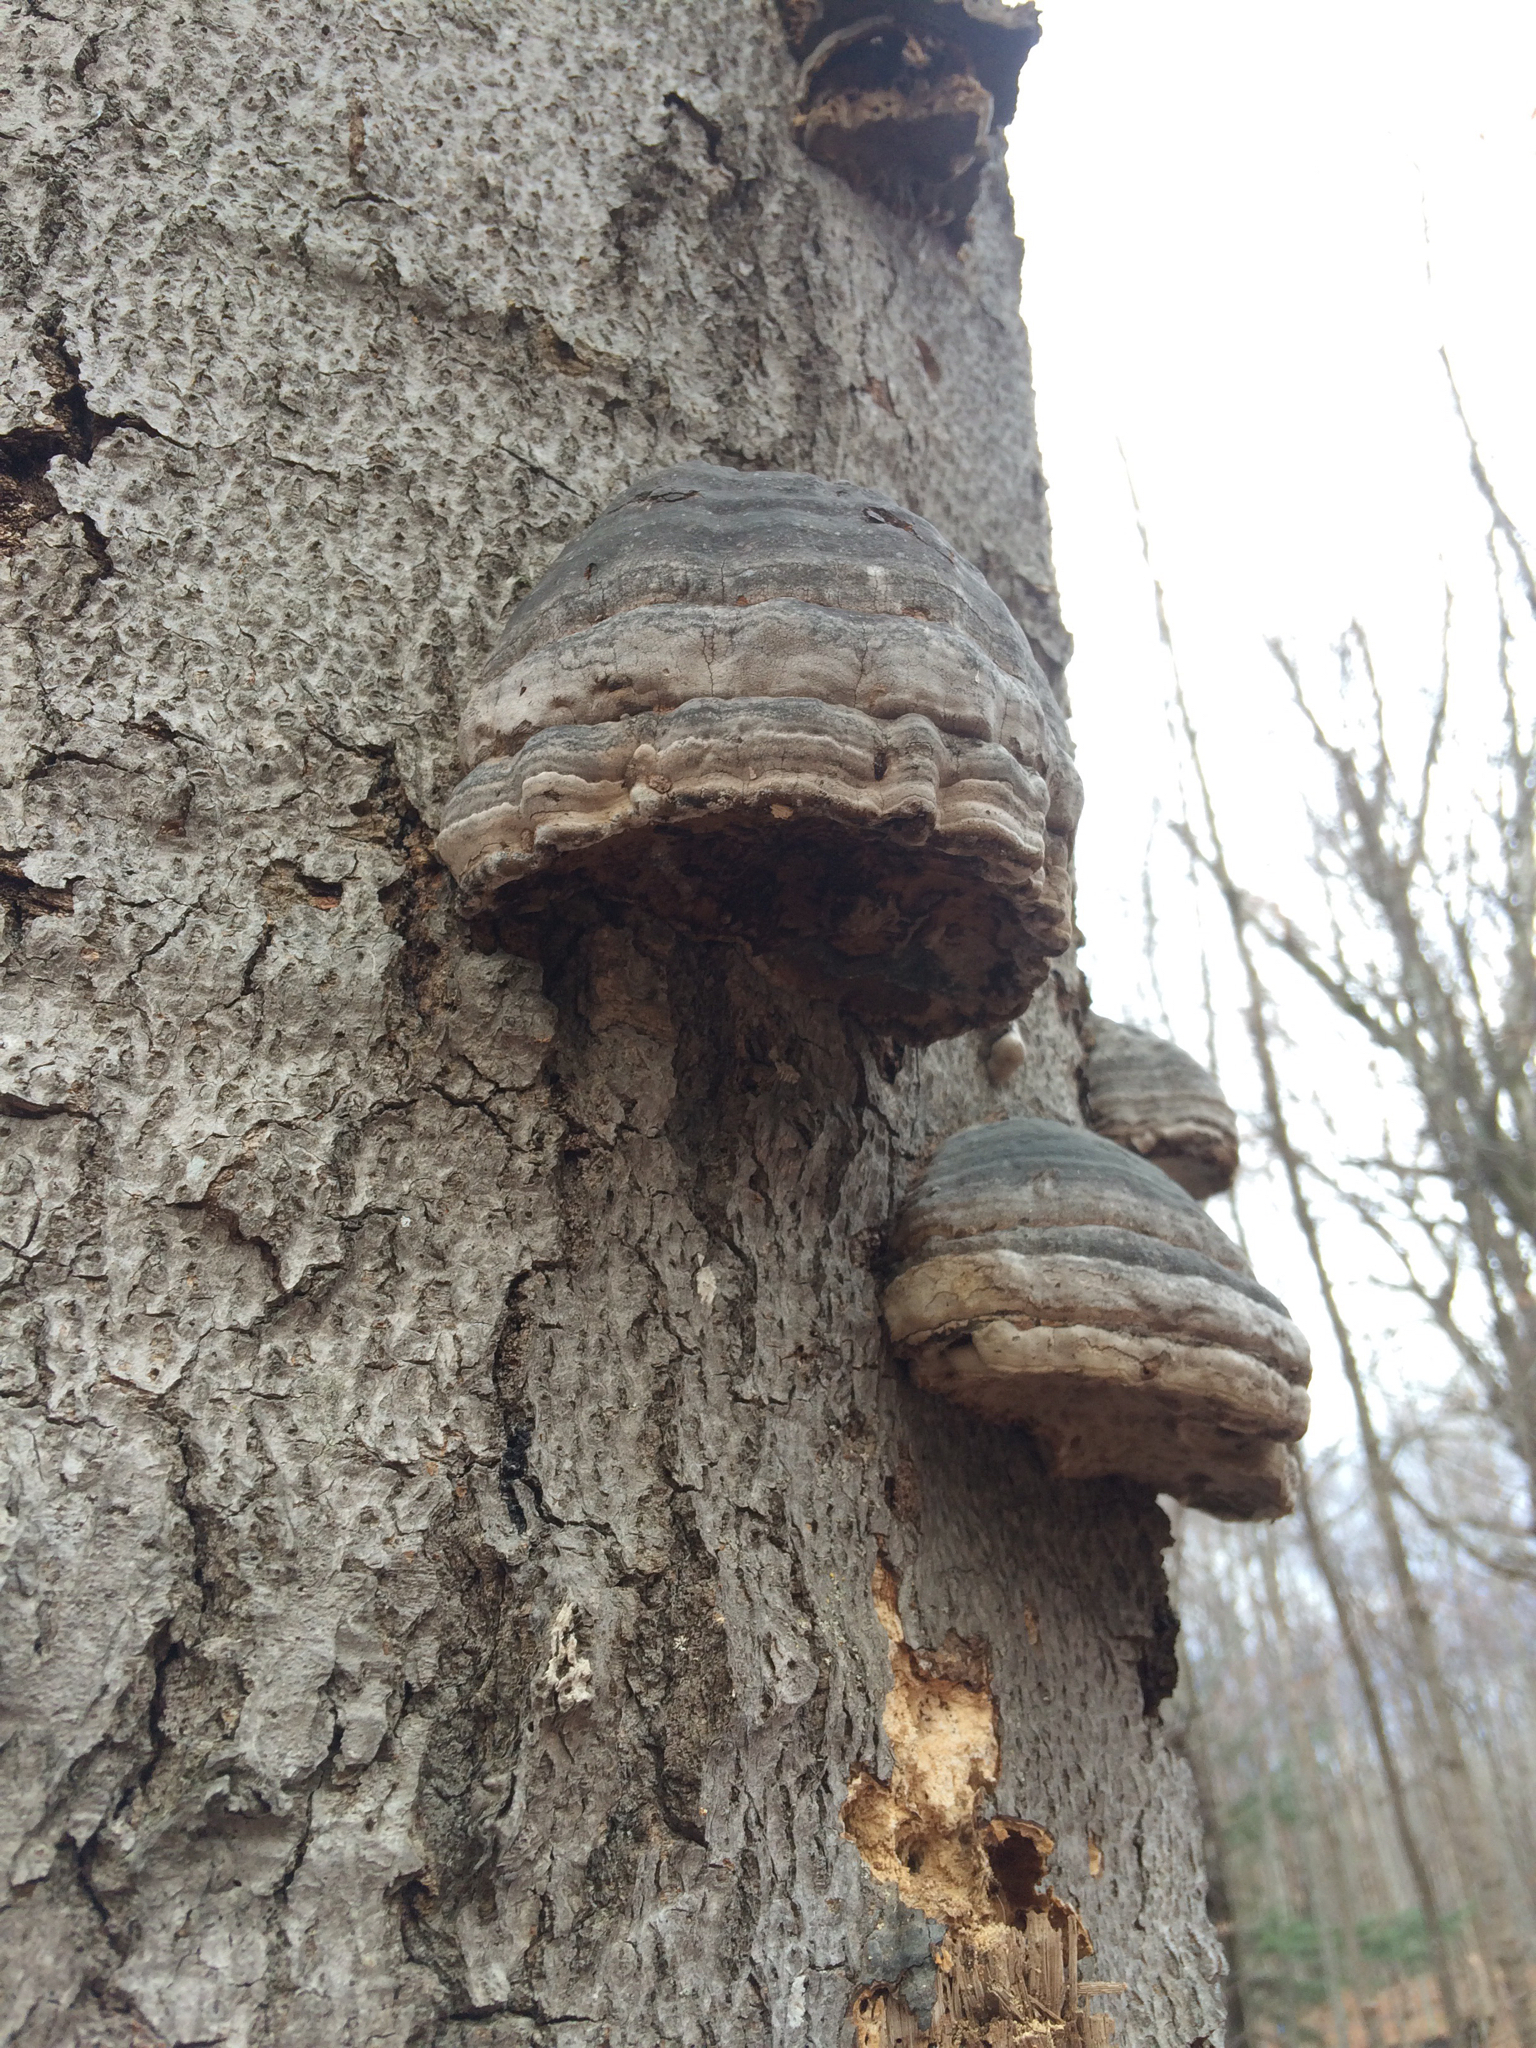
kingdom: Fungi
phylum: Basidiomycota
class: Agaricomycetes
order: Polyporales
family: Polyporaceae
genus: Fomes
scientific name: Fomes fomentarius
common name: Hoof fungus
